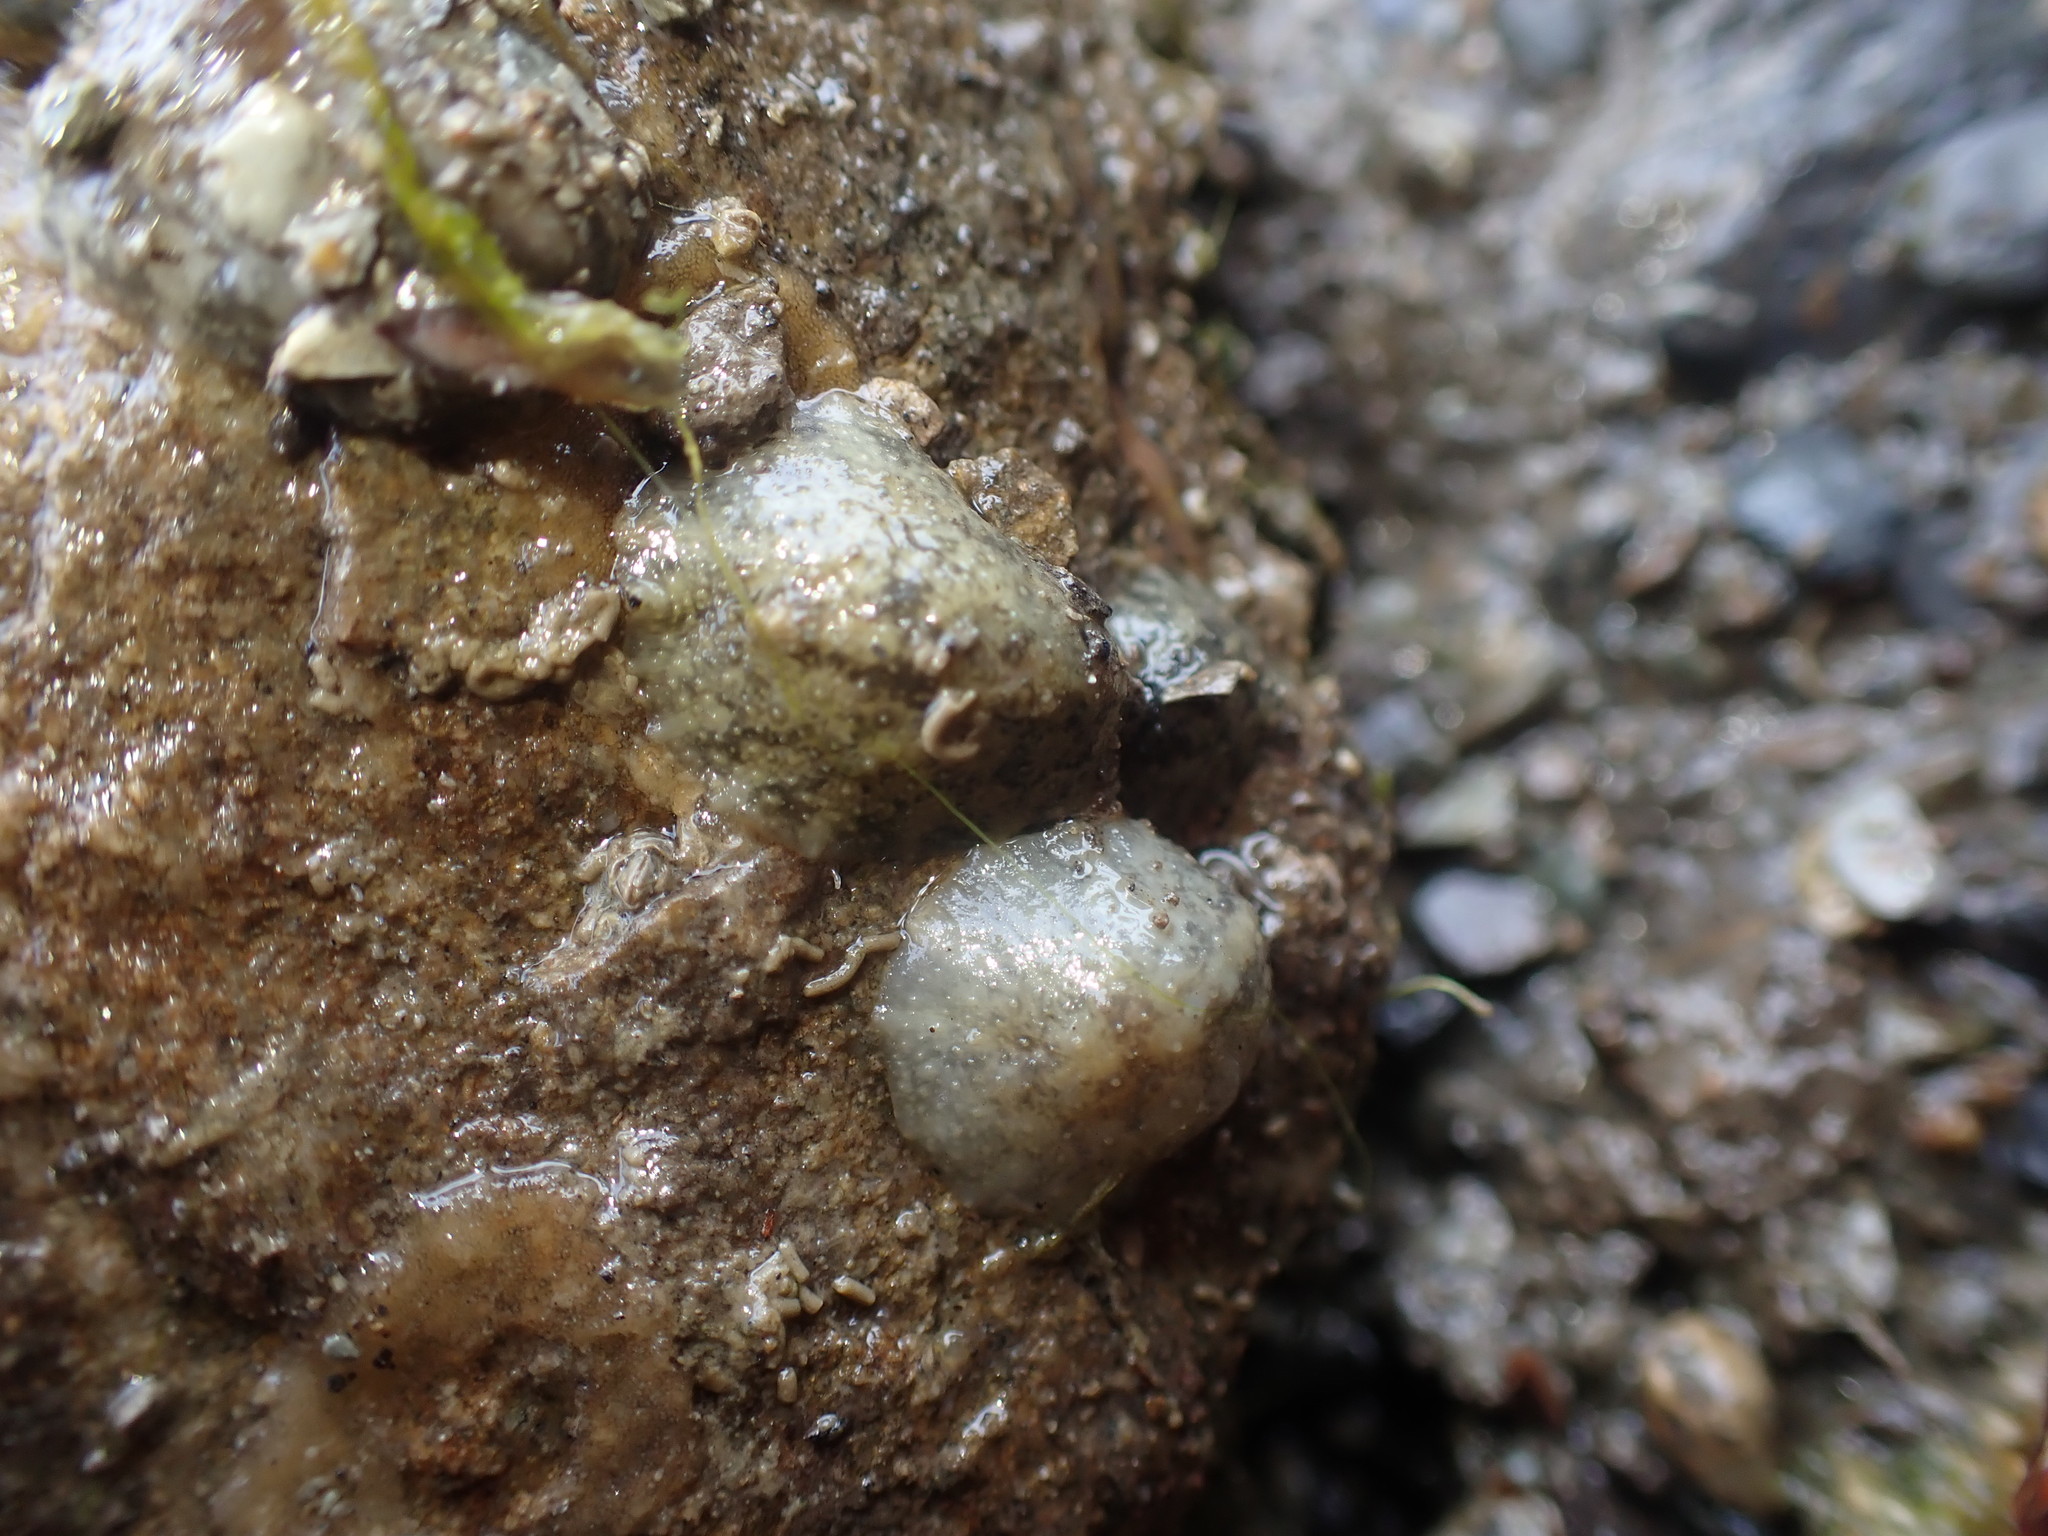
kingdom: Animalia
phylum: Mollusca
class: Gastropoda
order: Systellommatophora
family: Onchidiidae
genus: Onchidella
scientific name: Onchidella nigricans
